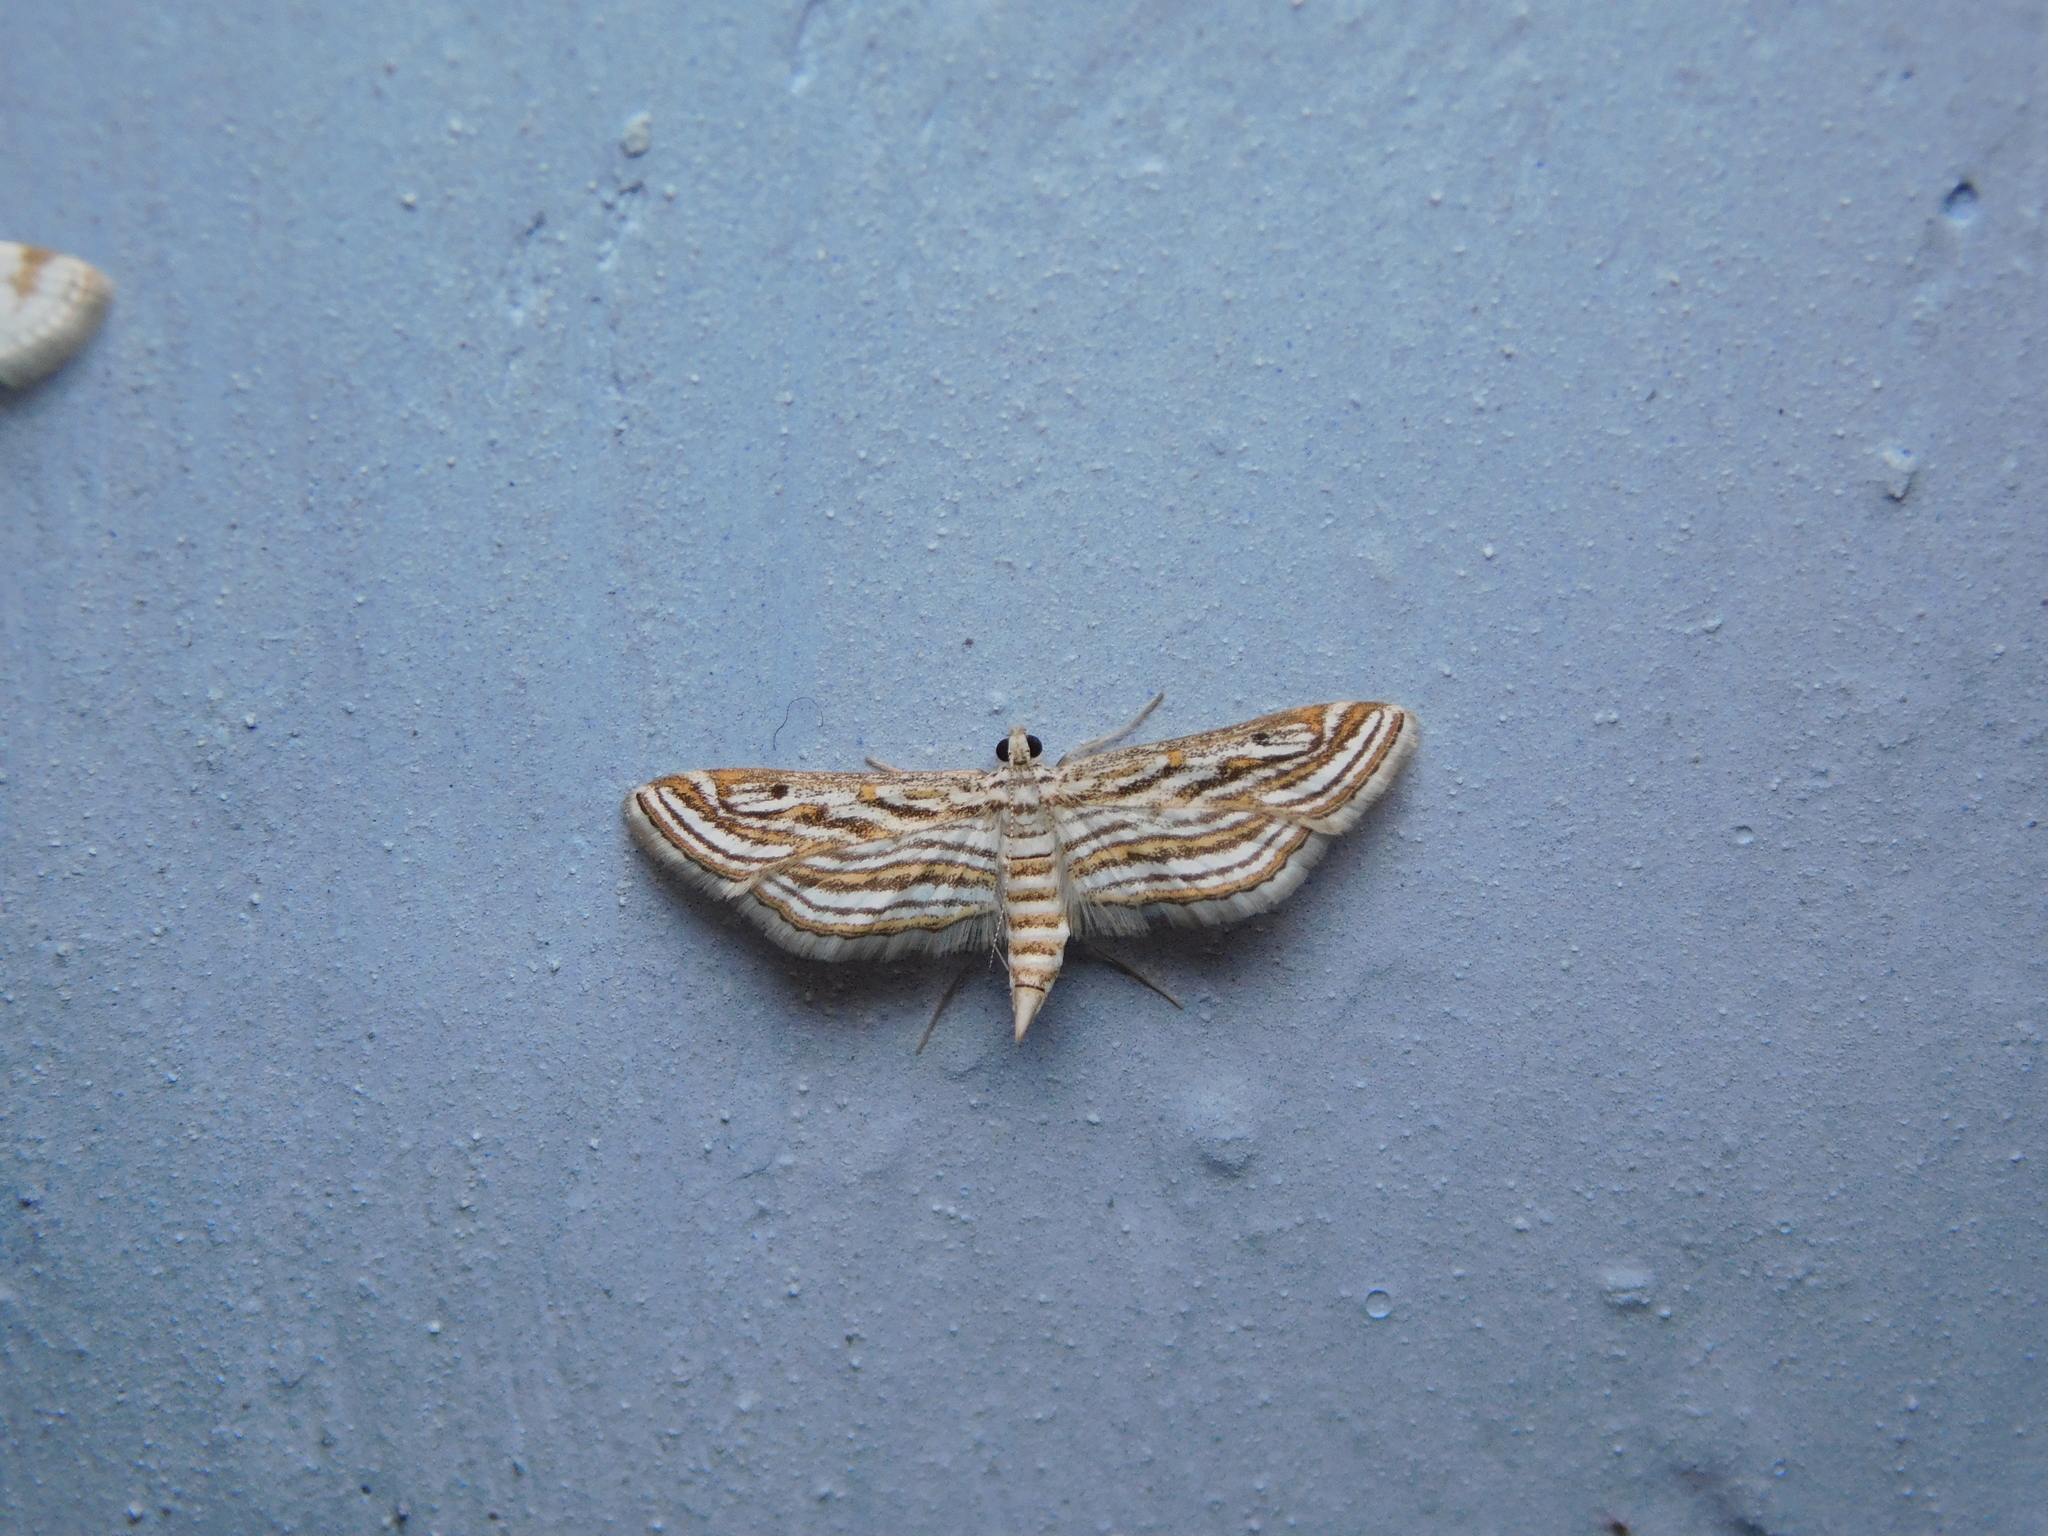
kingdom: Animalia
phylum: Arthropoda
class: Insecta
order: Lepidoptera
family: Crambidae
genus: Parapoynx
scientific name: Parapoynx fluctuosalis
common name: Moth
